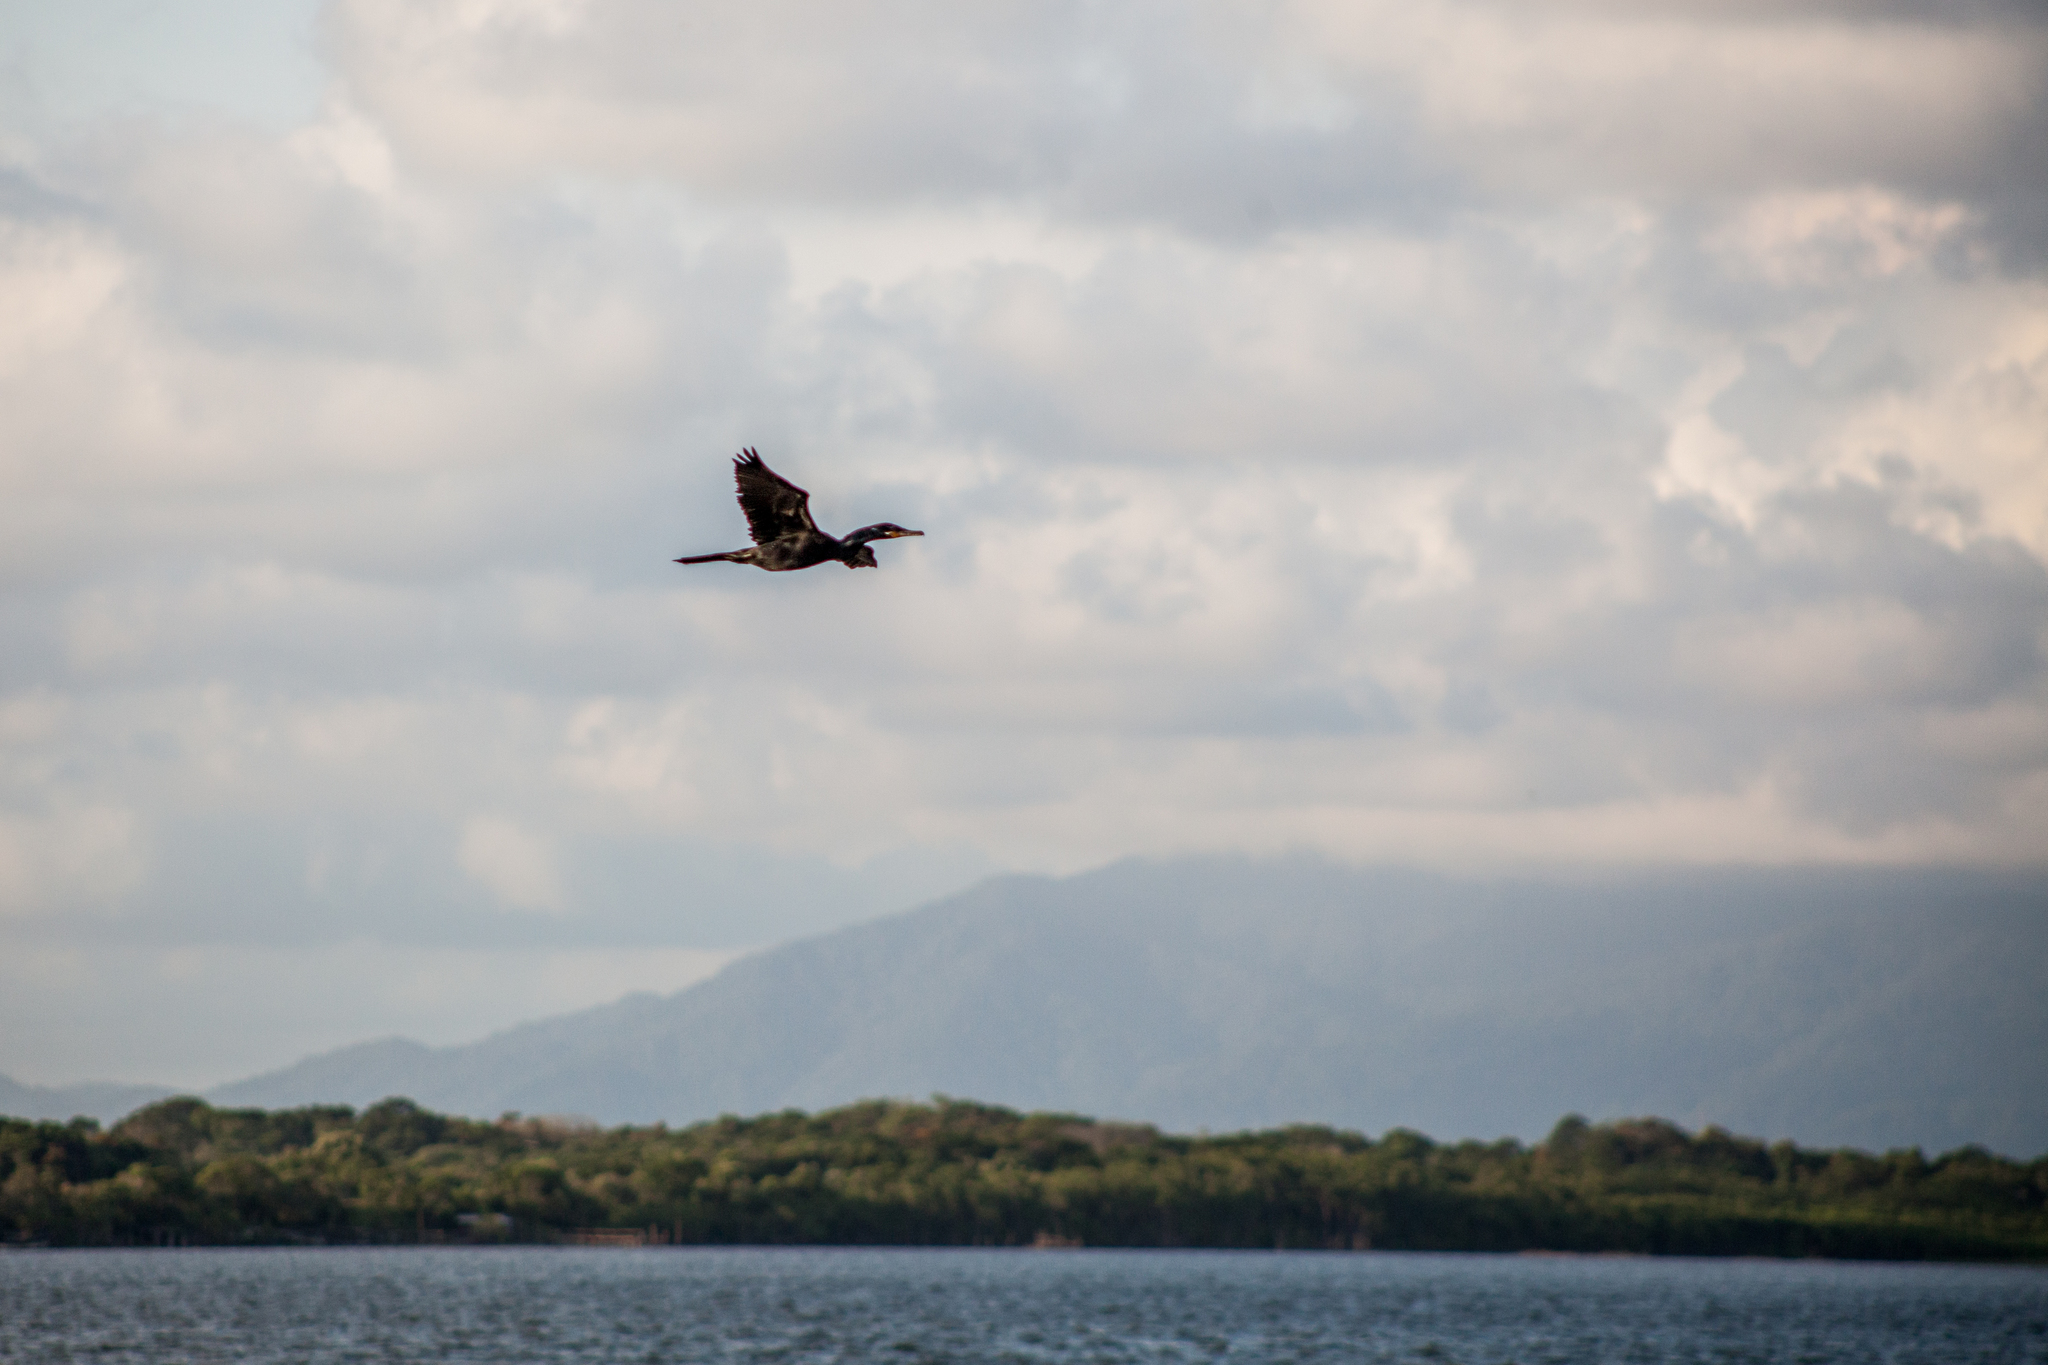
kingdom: Animalia
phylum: Chordata
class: Aves
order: Suliformes
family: Phalacrocoracidae
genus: Phalacrocorax
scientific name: Phalacrocorax brasilianus
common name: Neotropic cormorant
